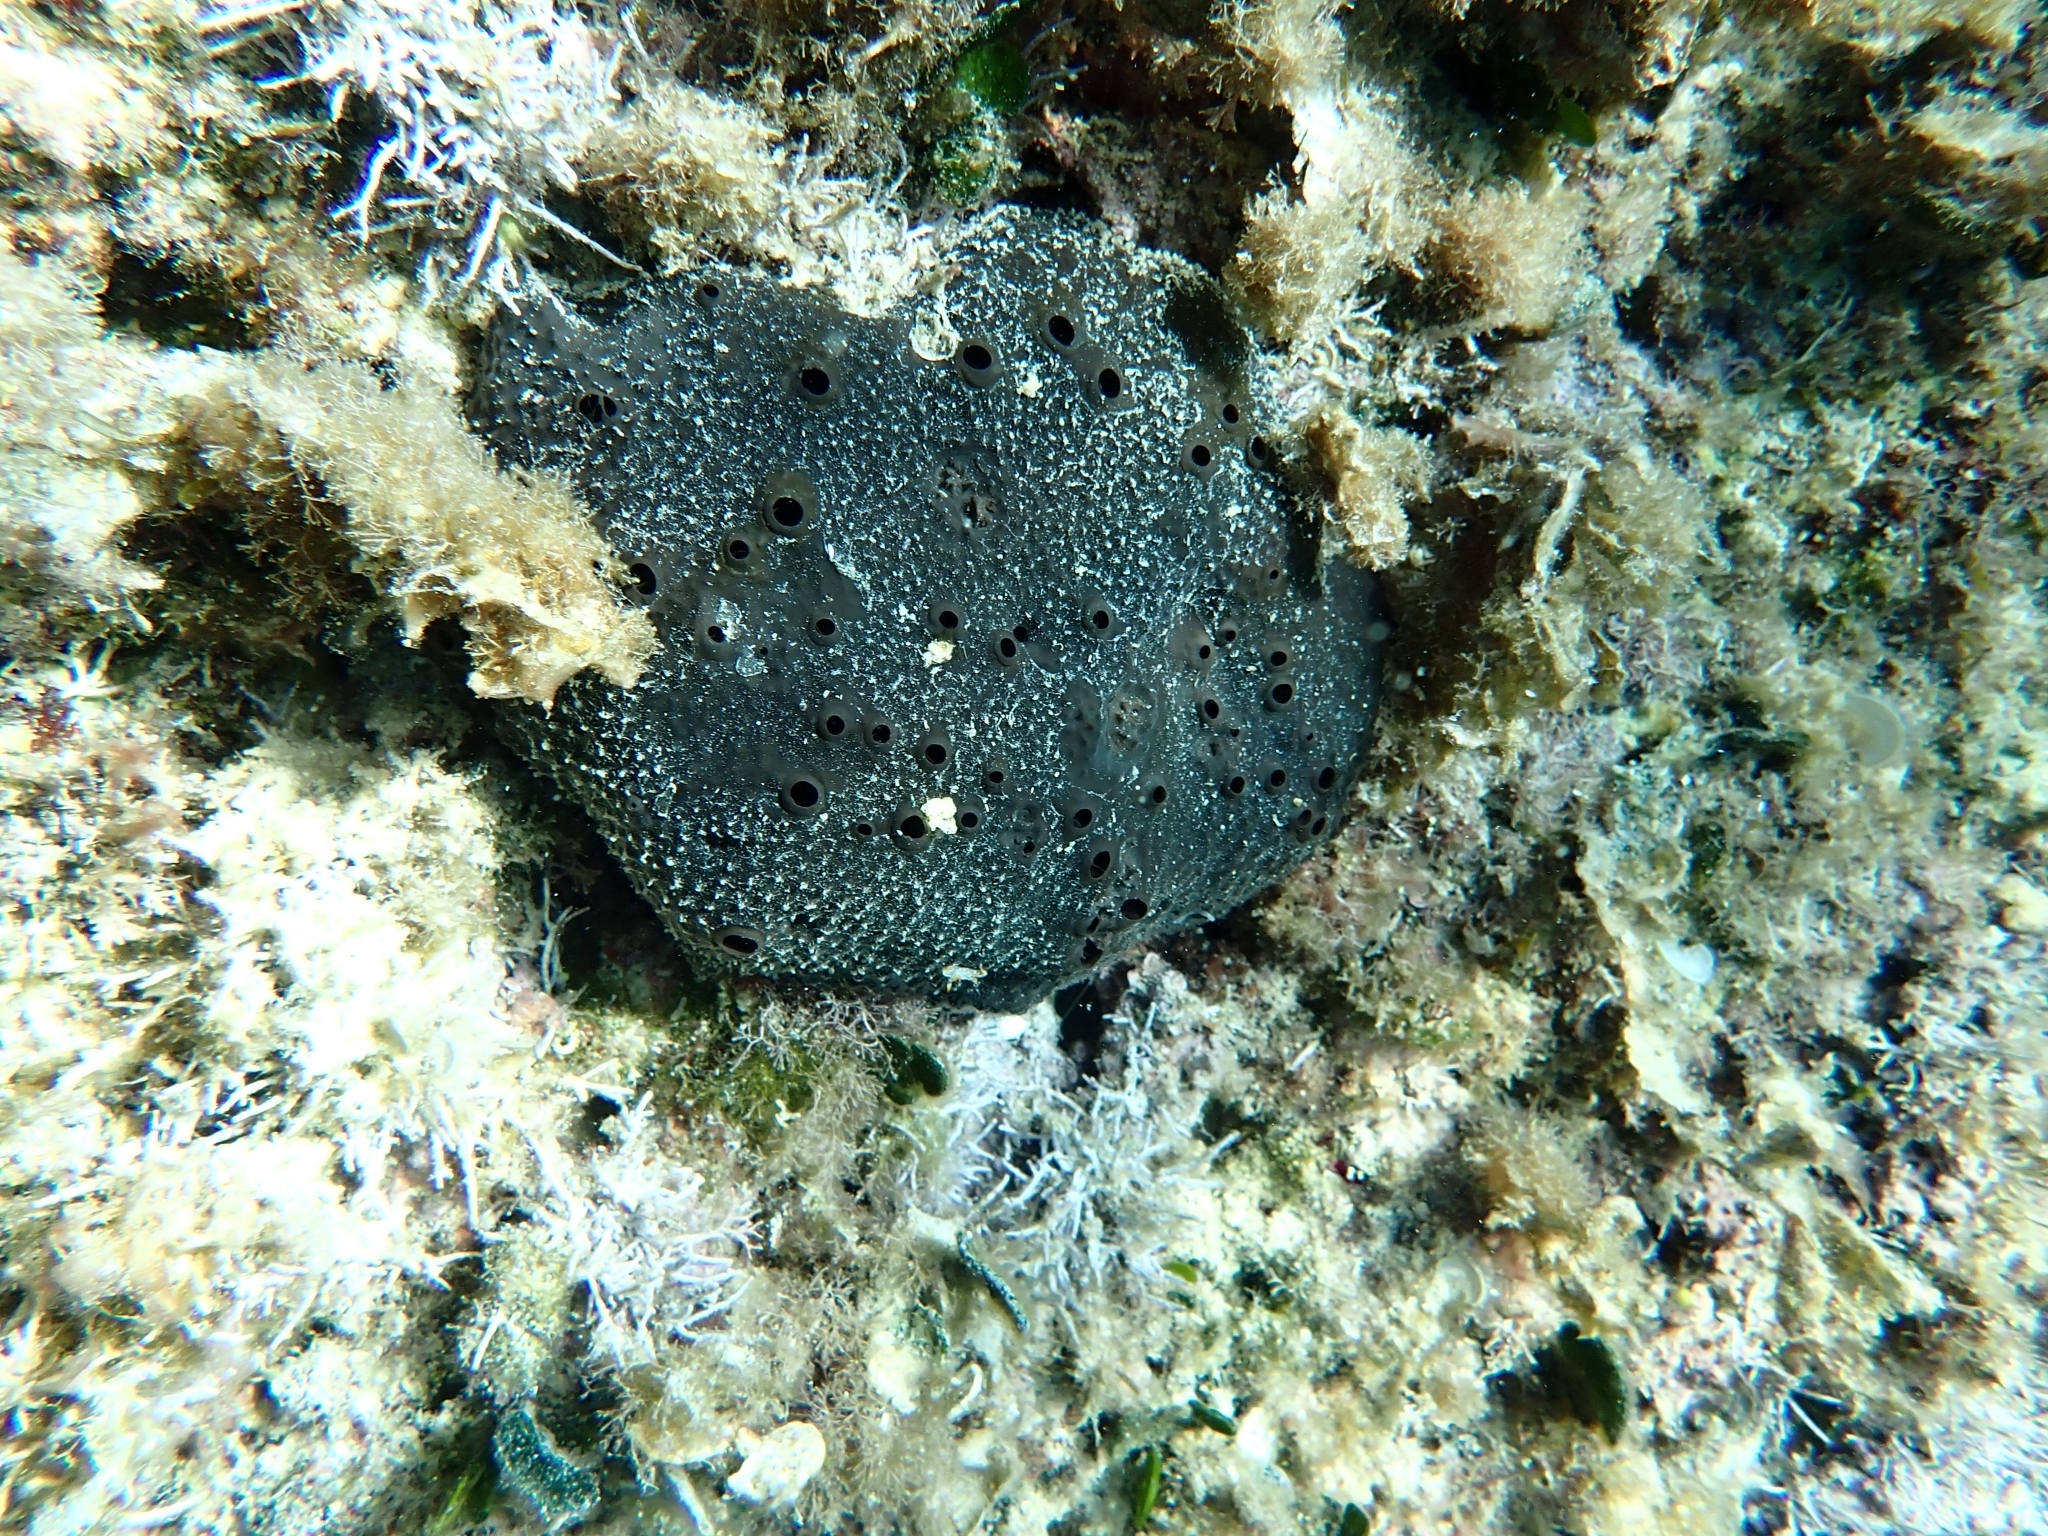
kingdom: Animalia
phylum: Porifera
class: Demospongiae
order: Dictyoceratida
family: Irciniidae
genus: Sarcotragus
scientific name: Sarcotragus spinosulus
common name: Black leather sponge
